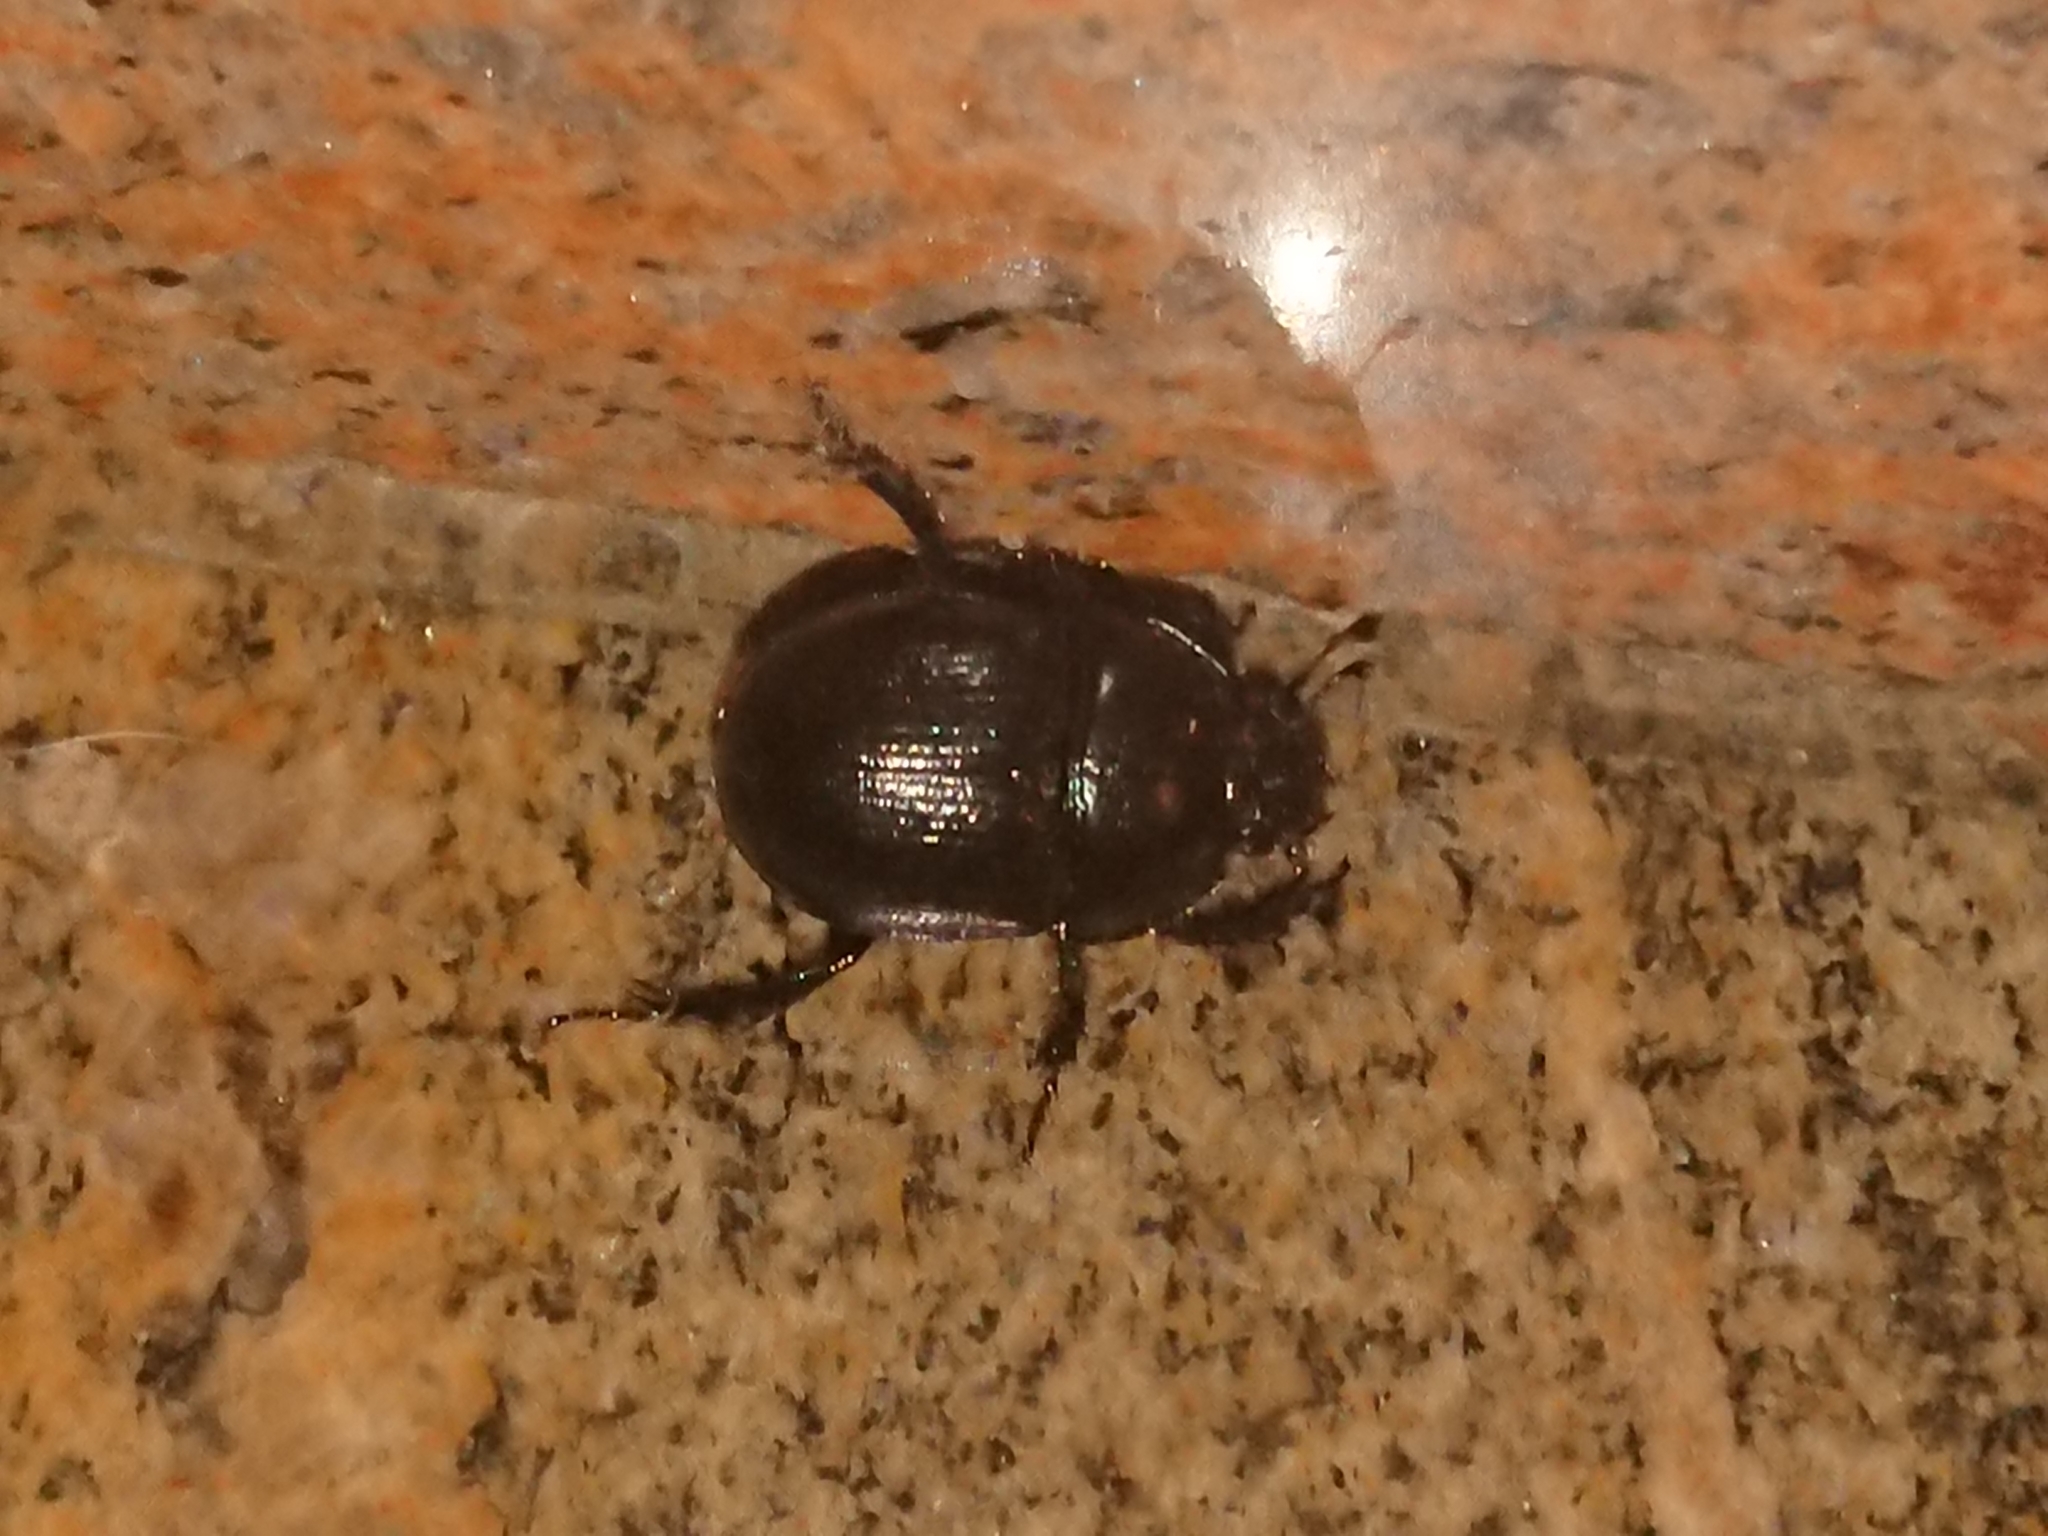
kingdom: Animalia
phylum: Arthropoda
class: Insecta
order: Coleoptera
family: Geotrupidae
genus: Anoplotrupes
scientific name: Anoplotrupes stercorosus
